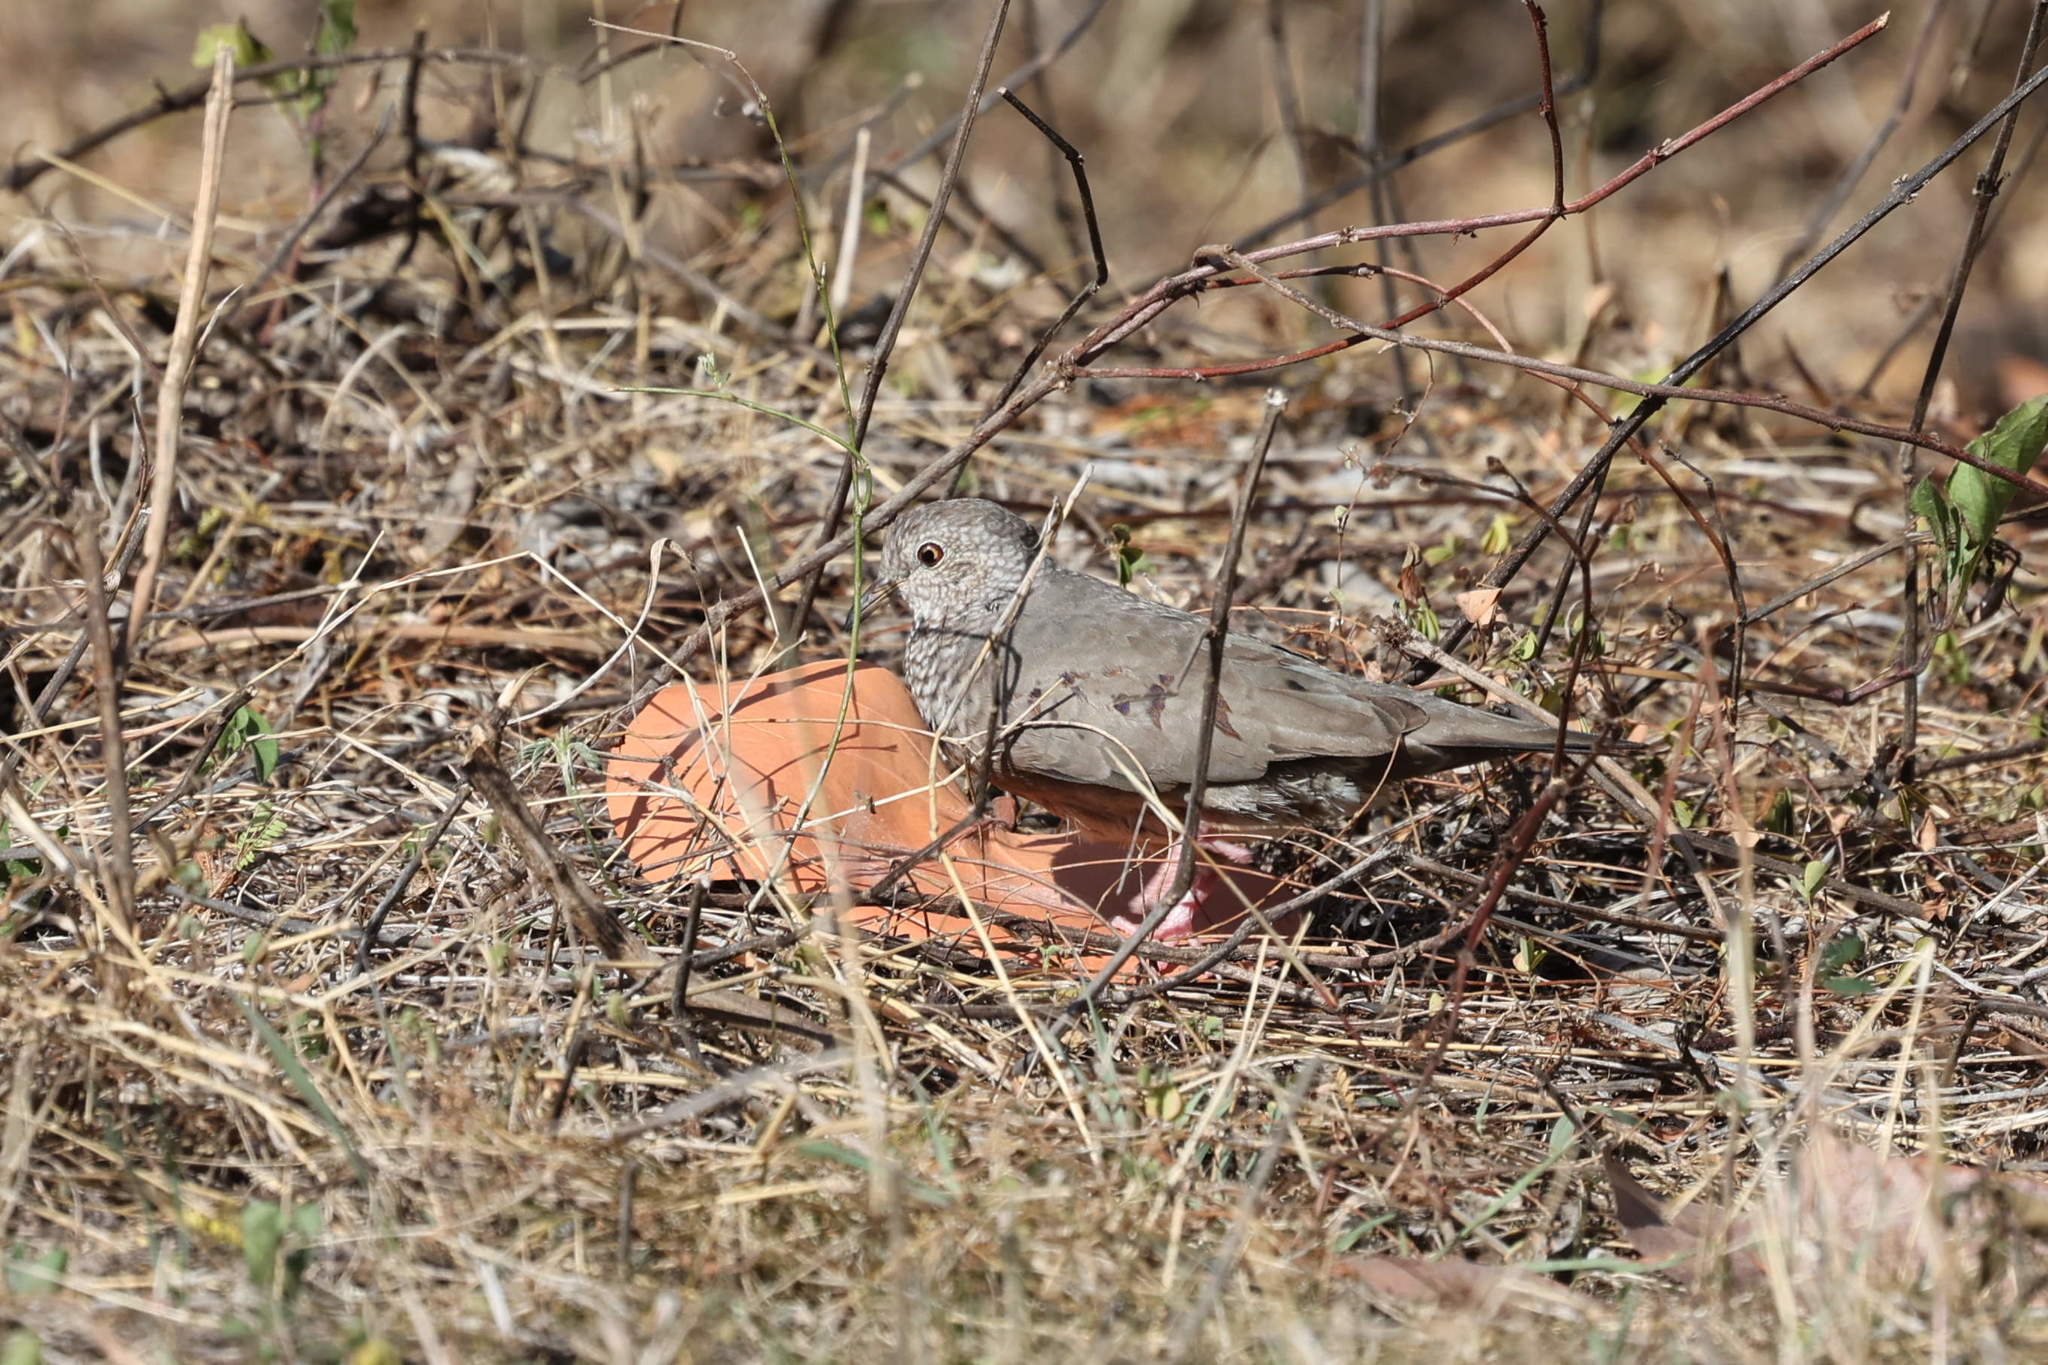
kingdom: Animalia
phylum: Chordata
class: Aves
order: Columbiformes
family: Columbidae
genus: Columbina
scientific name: Columbina passerina
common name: Common ground-dove
